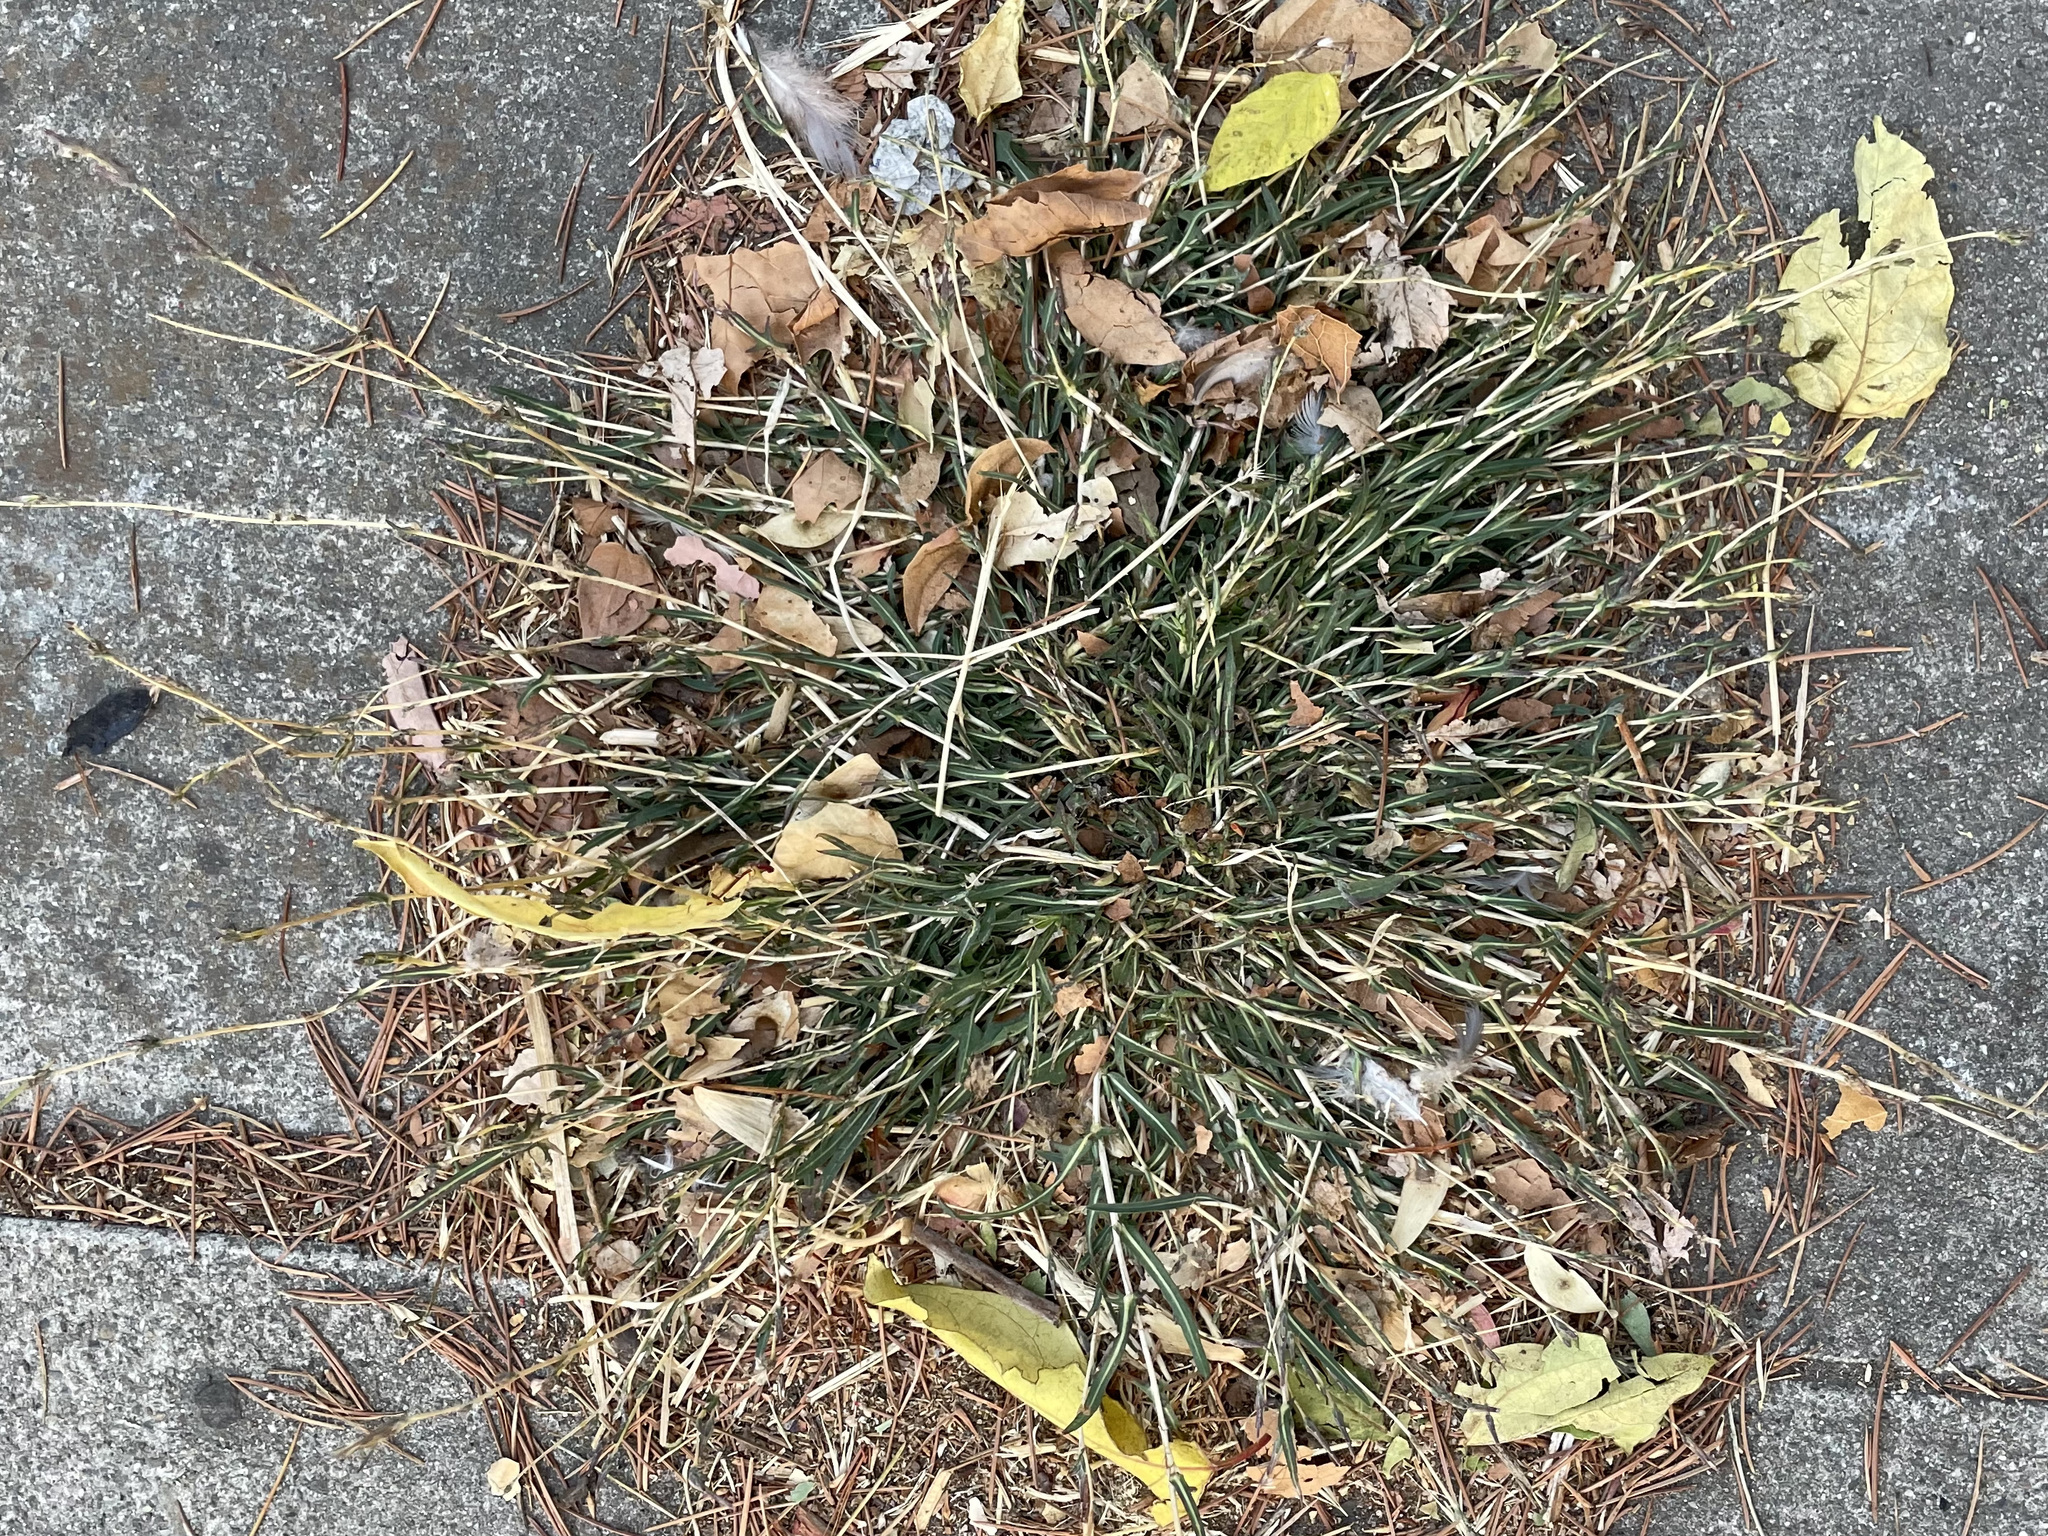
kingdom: Plantae
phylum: Tracheophyta
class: Magnoliopsida
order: Asterales
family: Asteraceae
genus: Lactuca
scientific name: Lactuca saligna
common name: Wild lettuce
